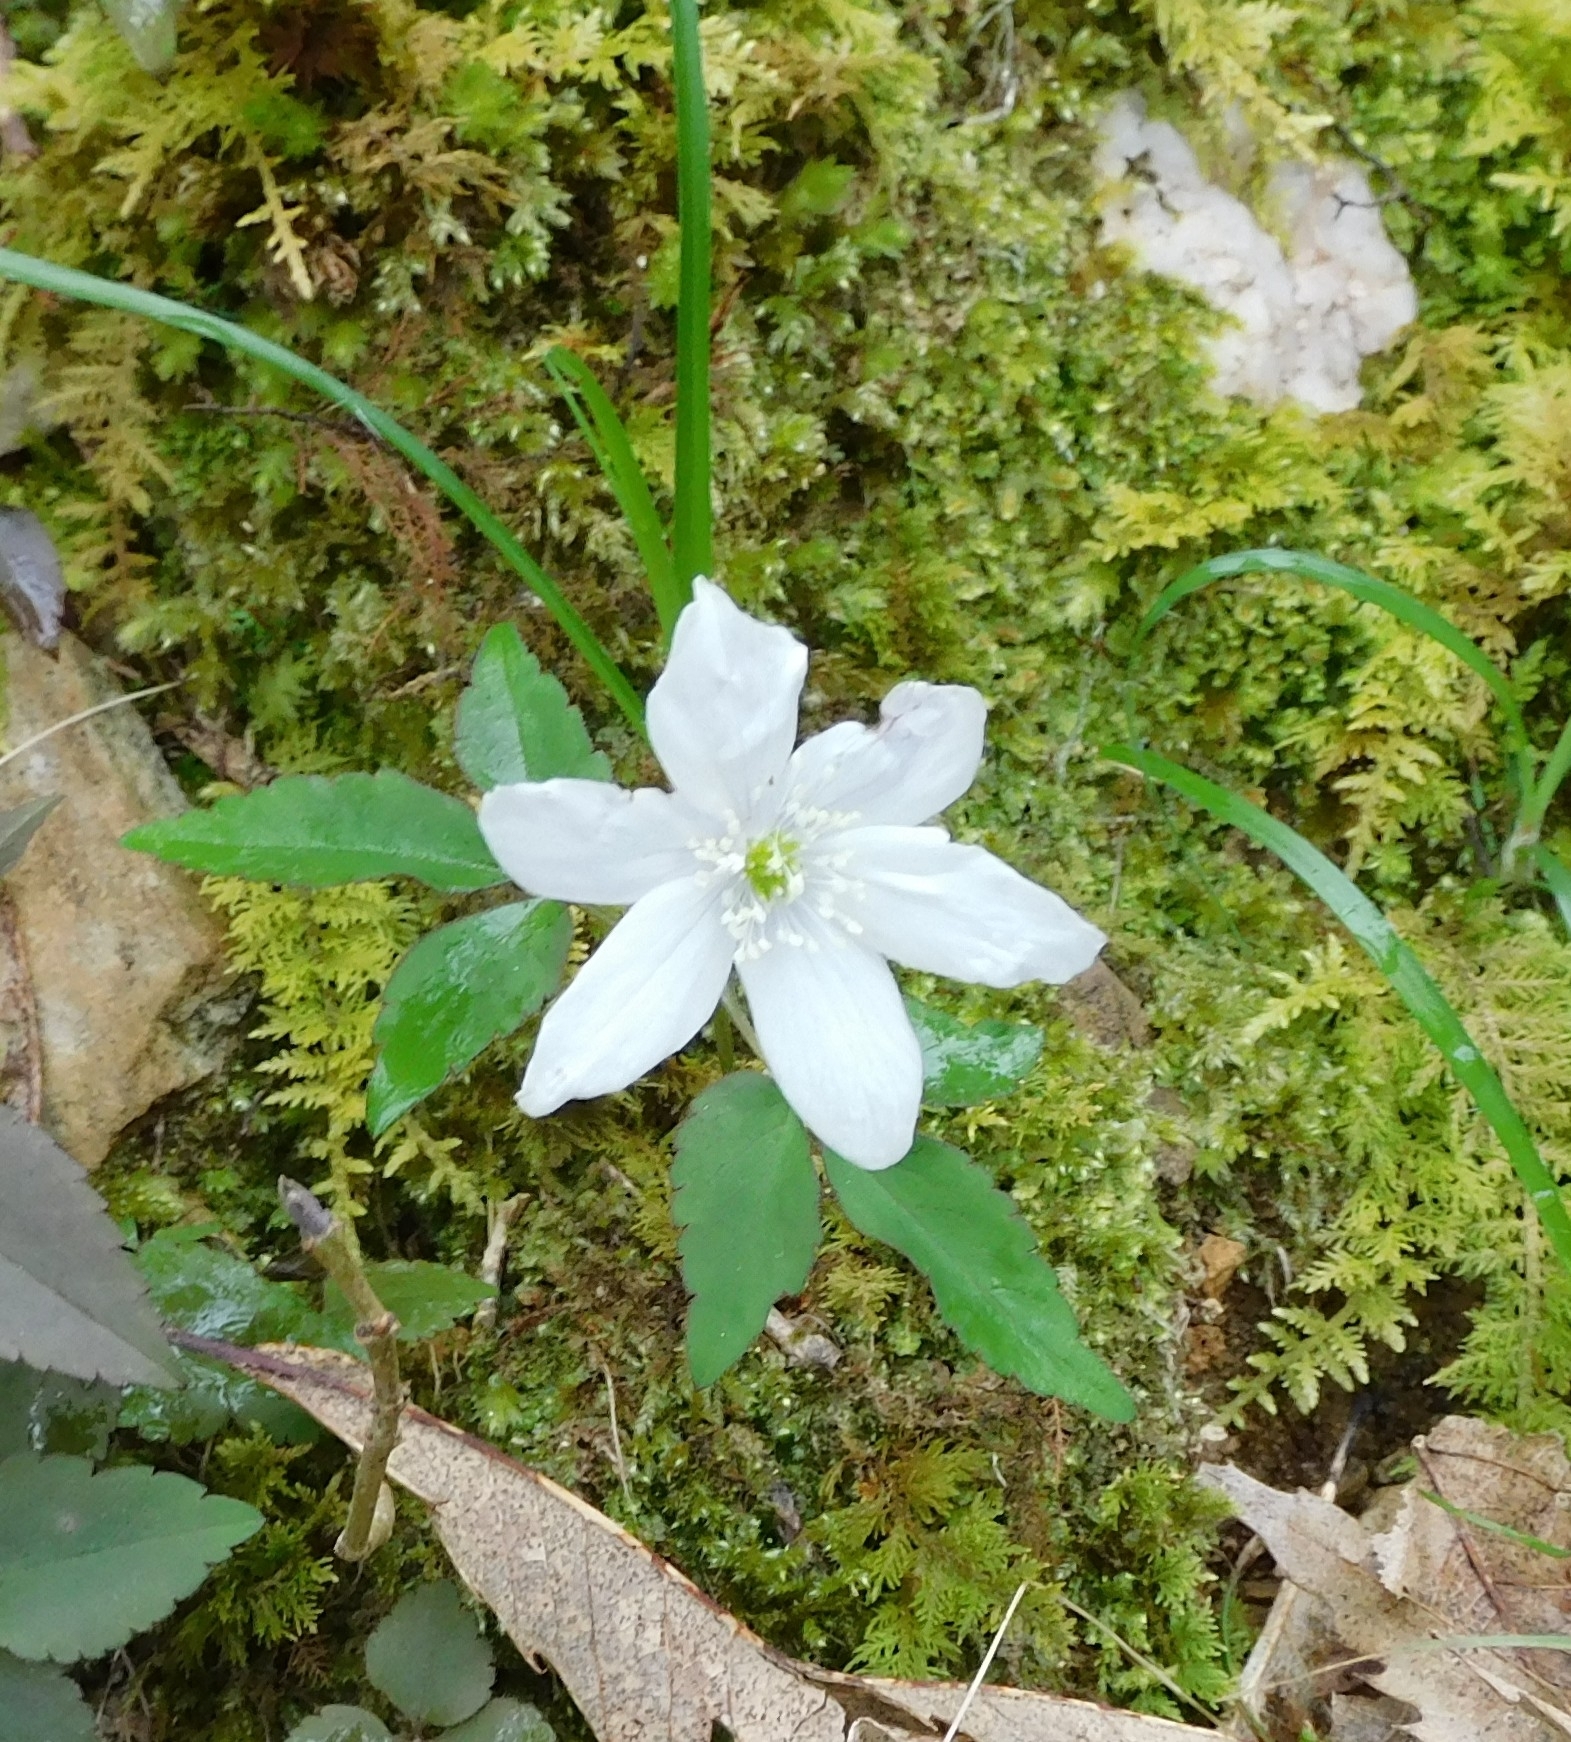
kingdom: Plantae
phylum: Tracheophyta
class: Magnoliopsida
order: Ranunculales
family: Ranunculaceae
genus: Anemone
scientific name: Anemone trifolia
